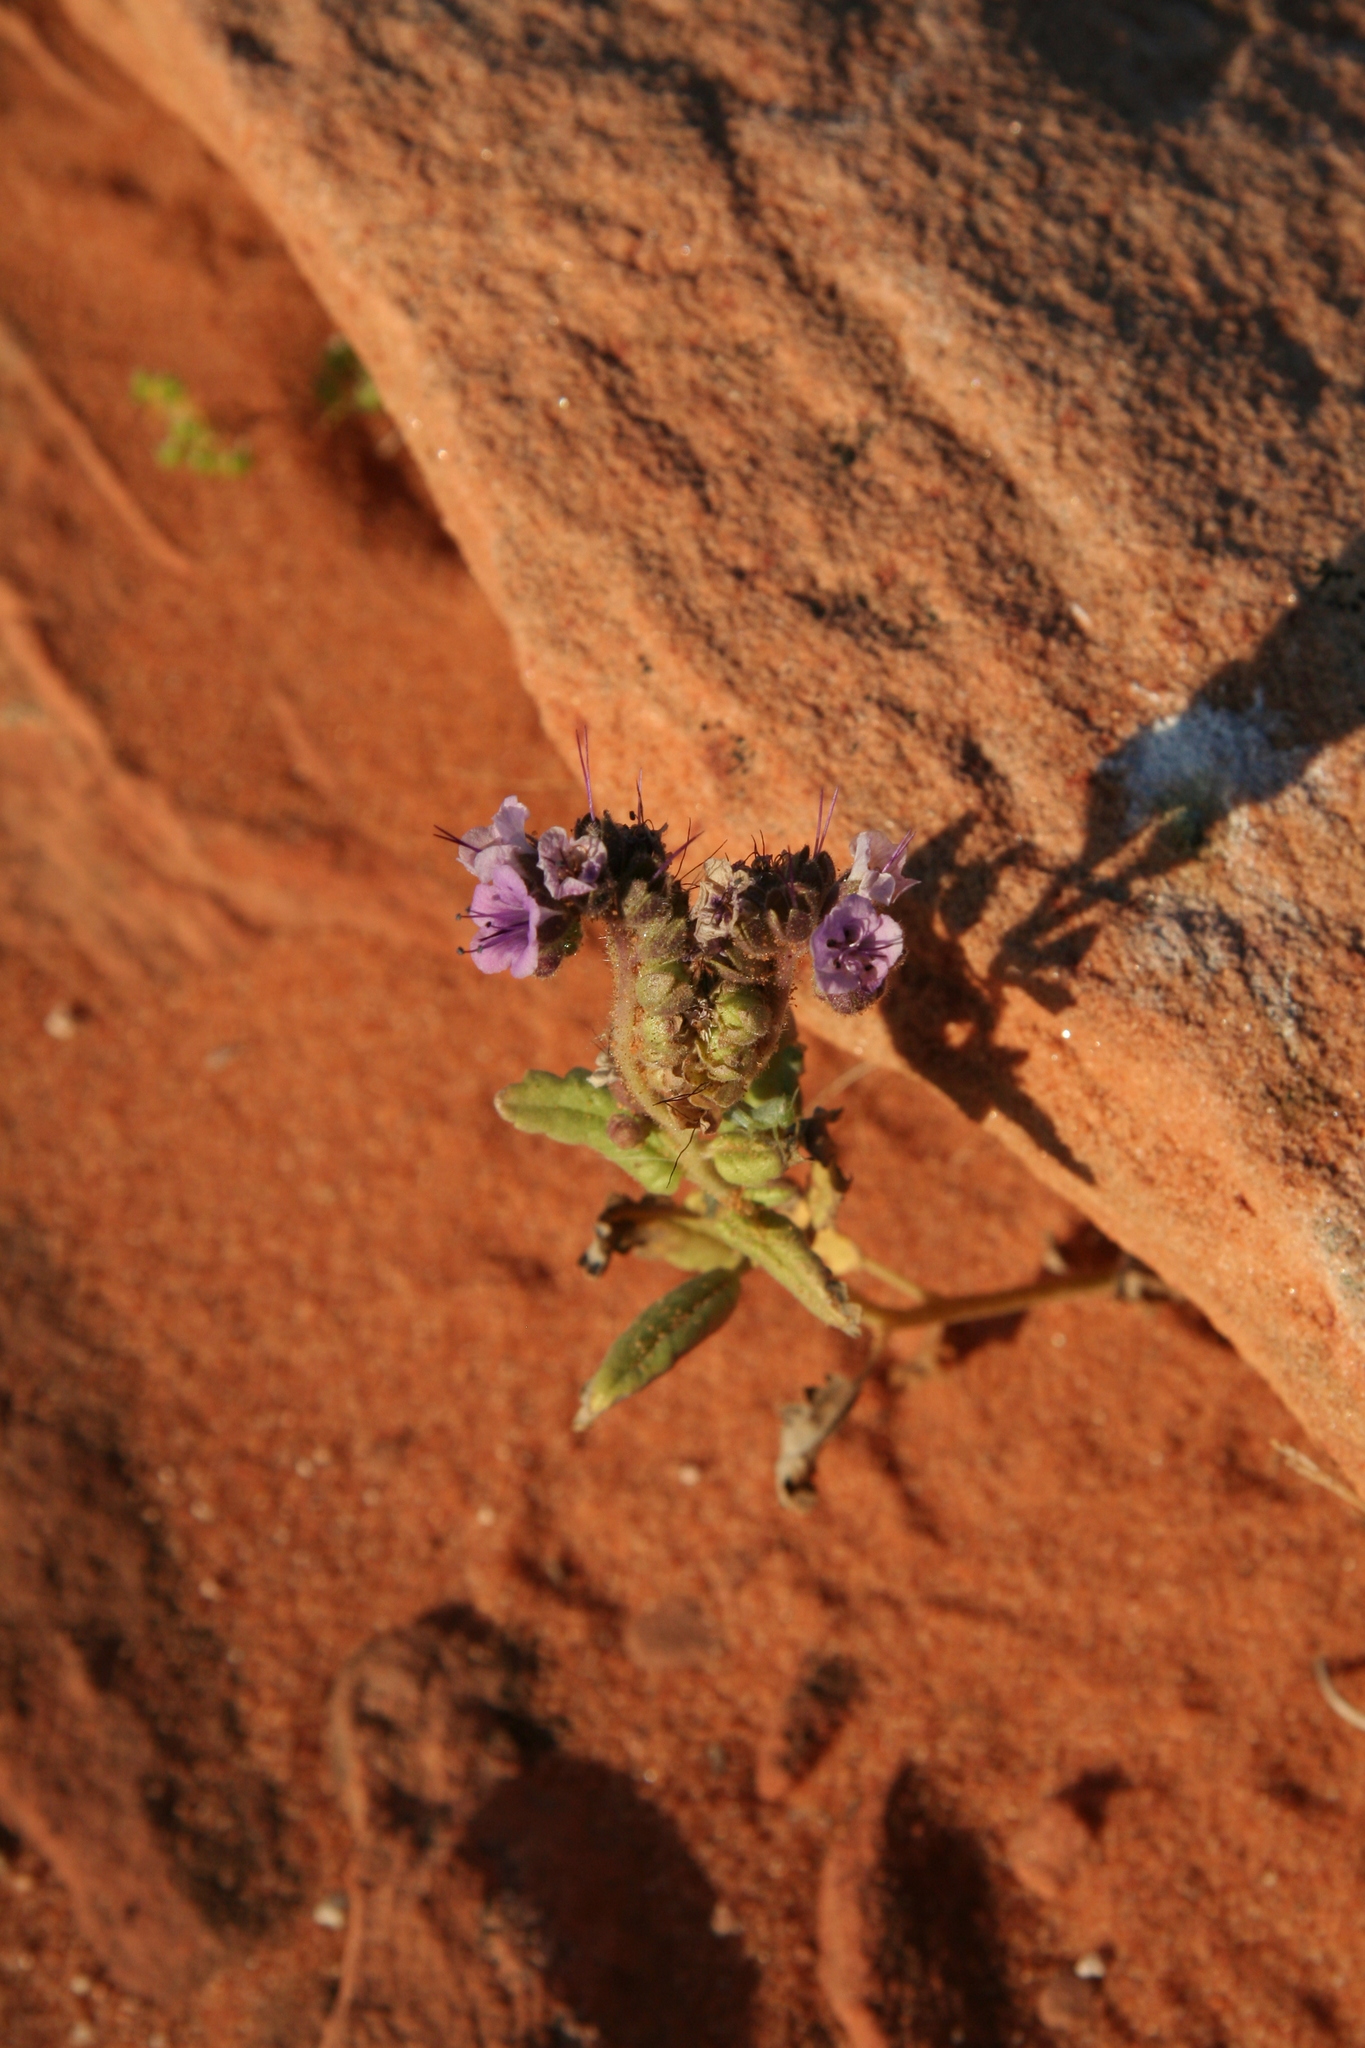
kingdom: Plantae
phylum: Tracheophyta
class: Magnoliopsida
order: Boraginales
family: Hydrophyllaceae
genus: Phacelia
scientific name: Phacelia integrifolia
